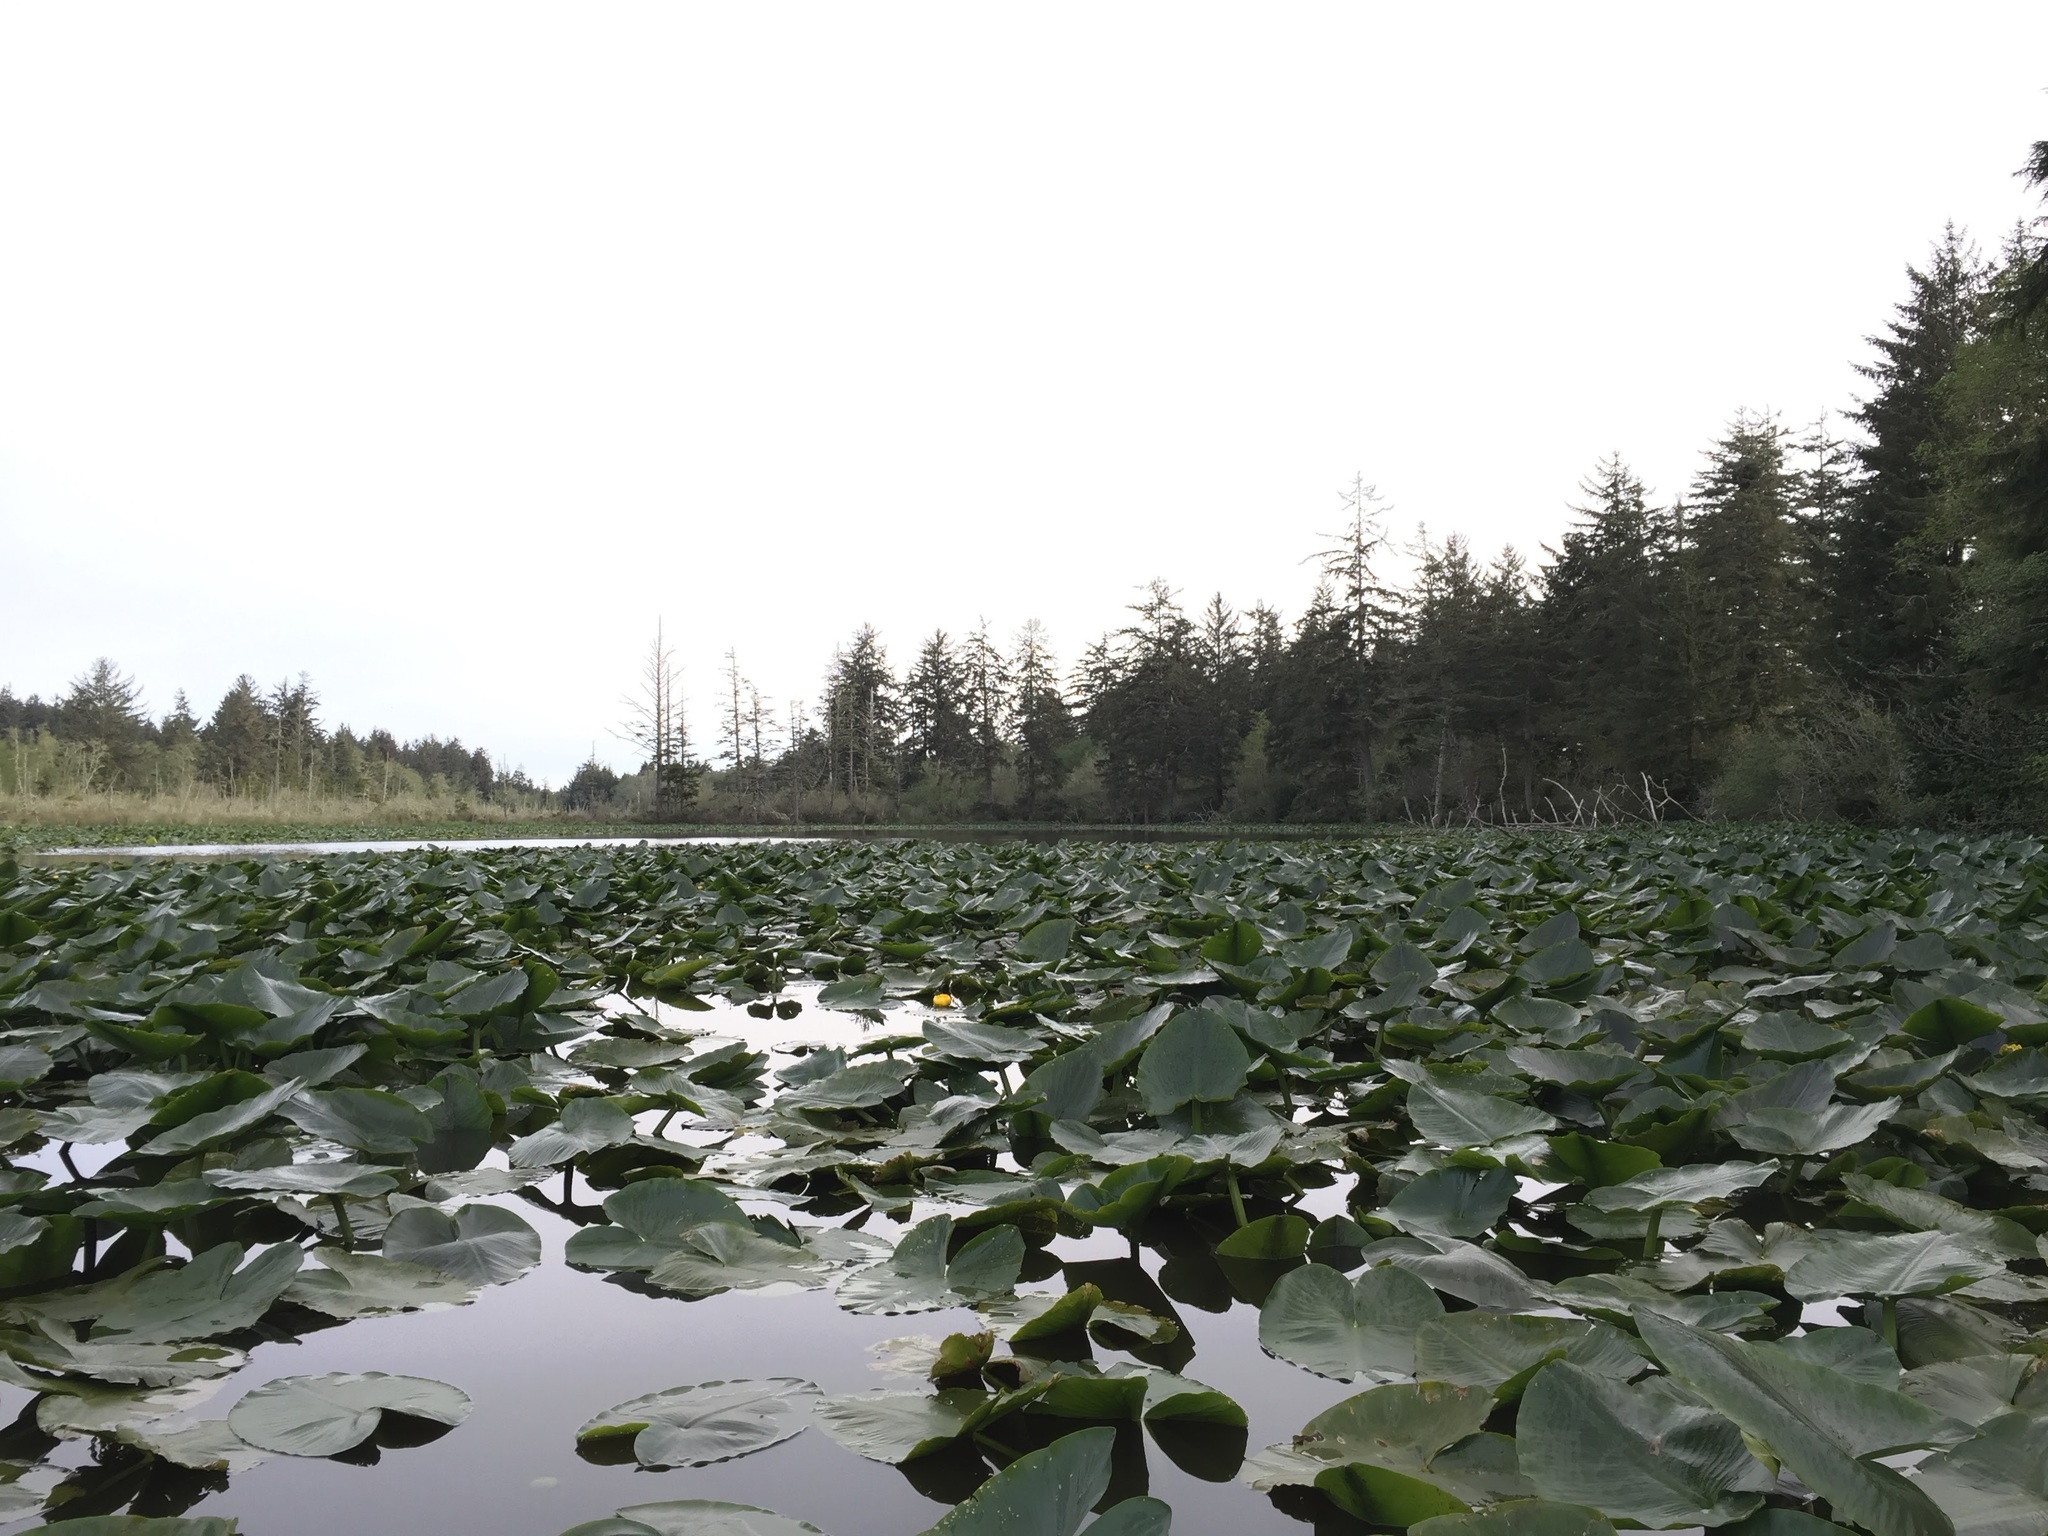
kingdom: Plantae
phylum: Tracheophyta
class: Magnoliopsida
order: Nymphaeales
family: Nymphaeaceae
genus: Nuphar
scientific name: Nuphar polysepala
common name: Rocky mountain cow-lily
